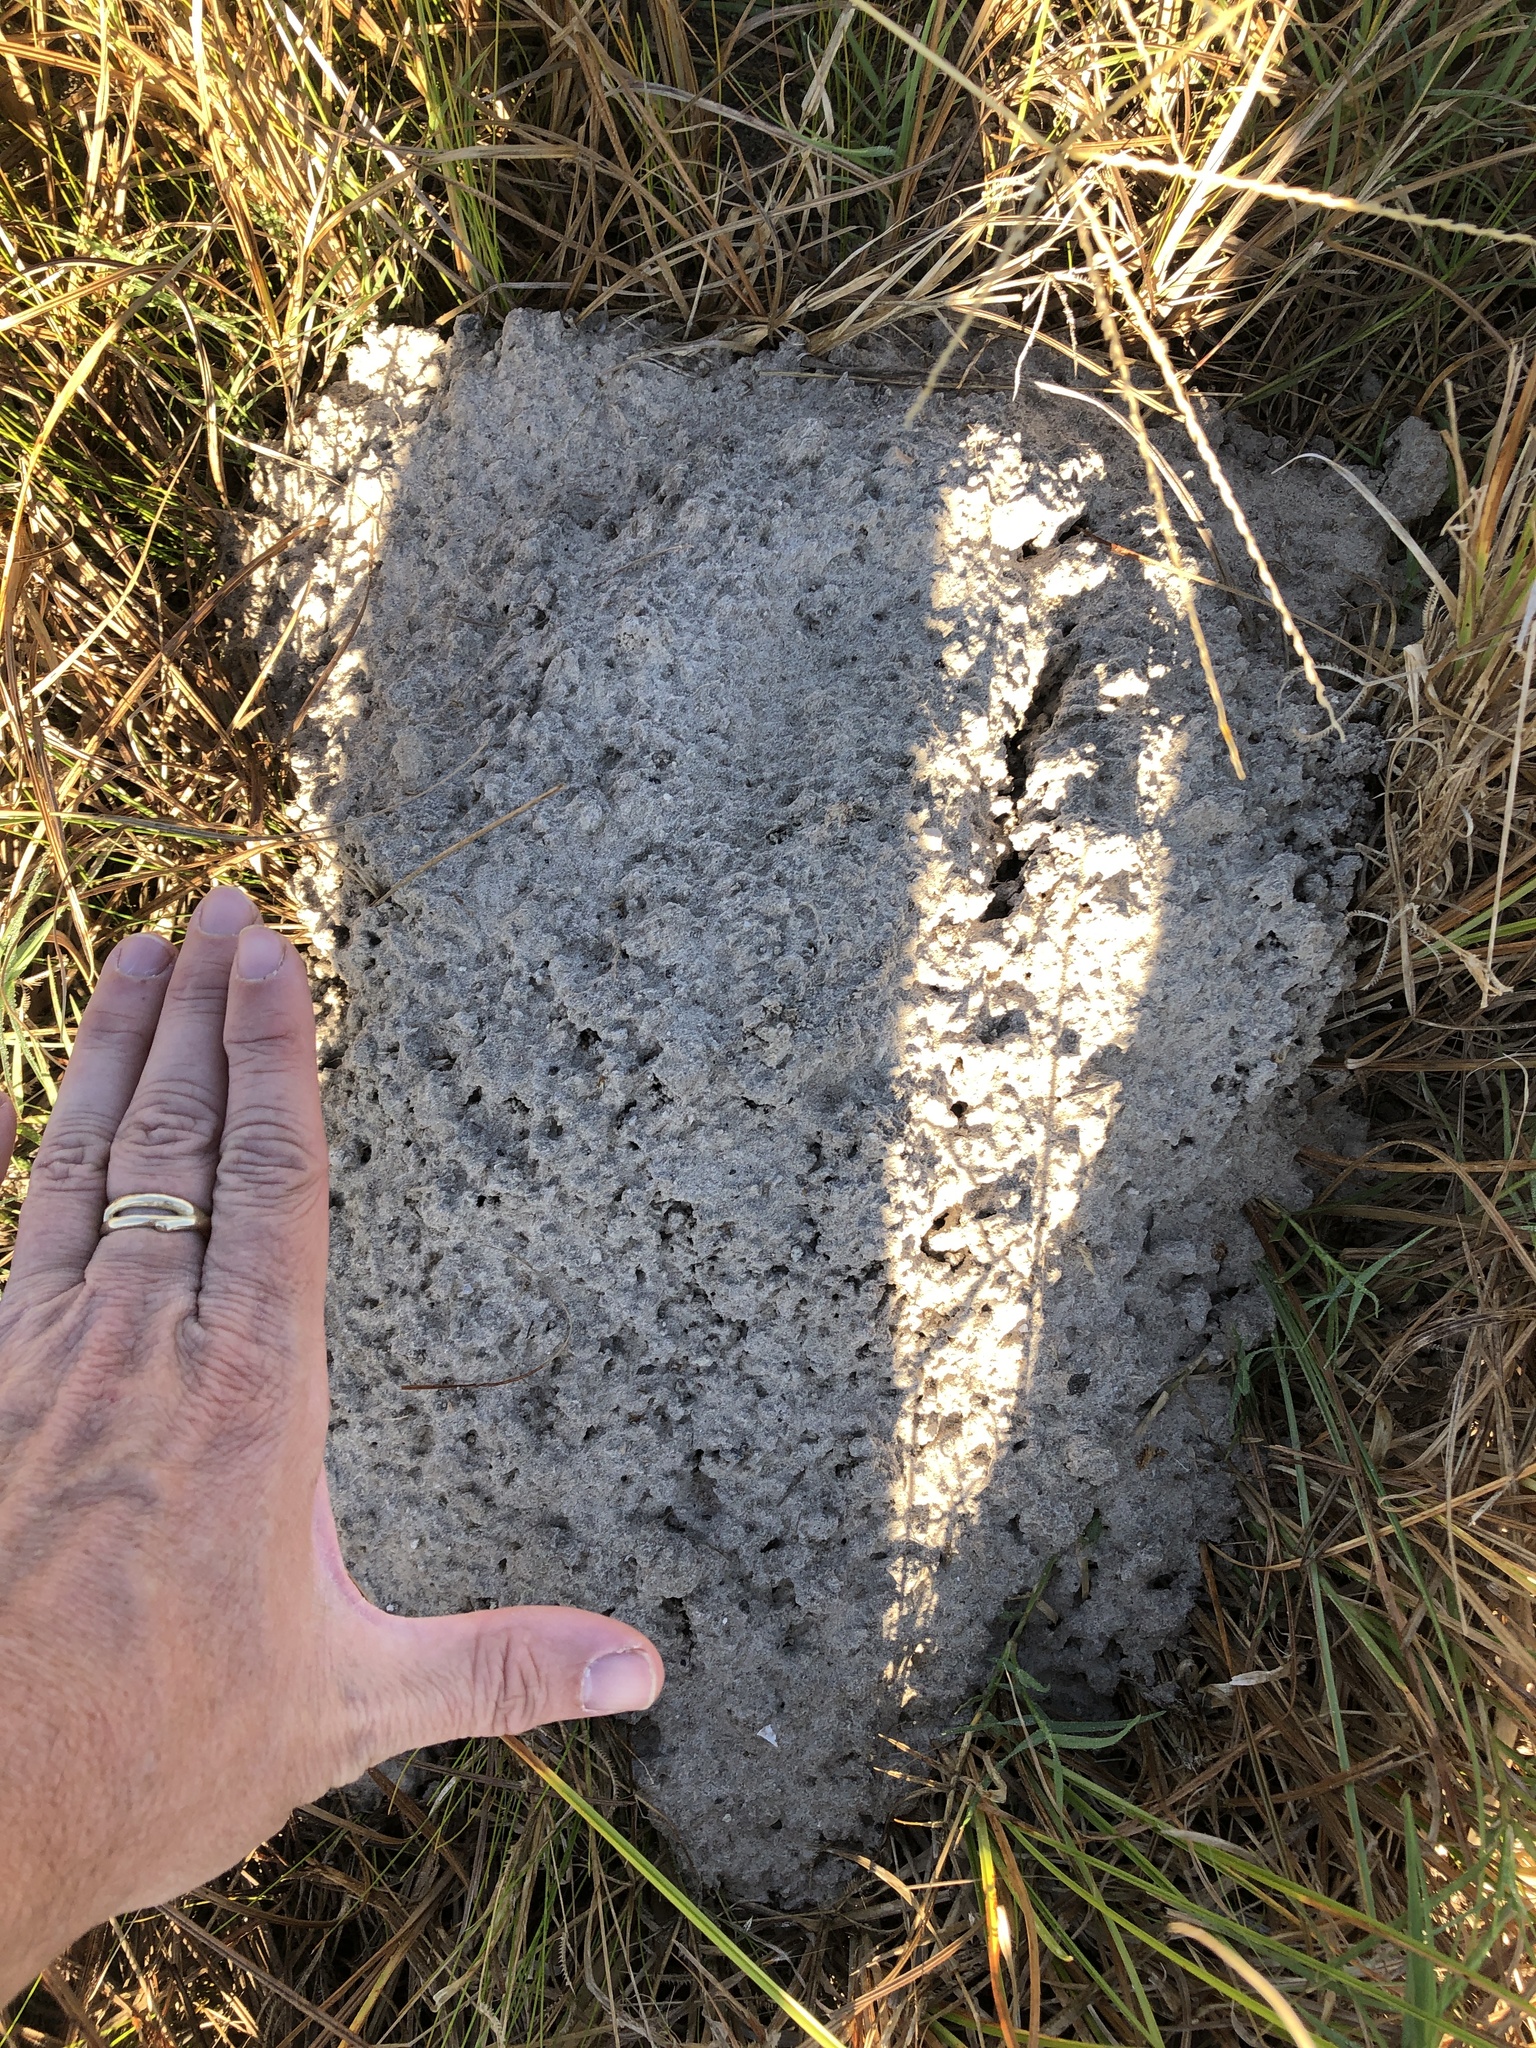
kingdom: Animalia
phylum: Chordata
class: Mammalia
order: Rodentia
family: Geomyidae
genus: Geomys
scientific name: Geomys personatus
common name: Texas pocket gopher
